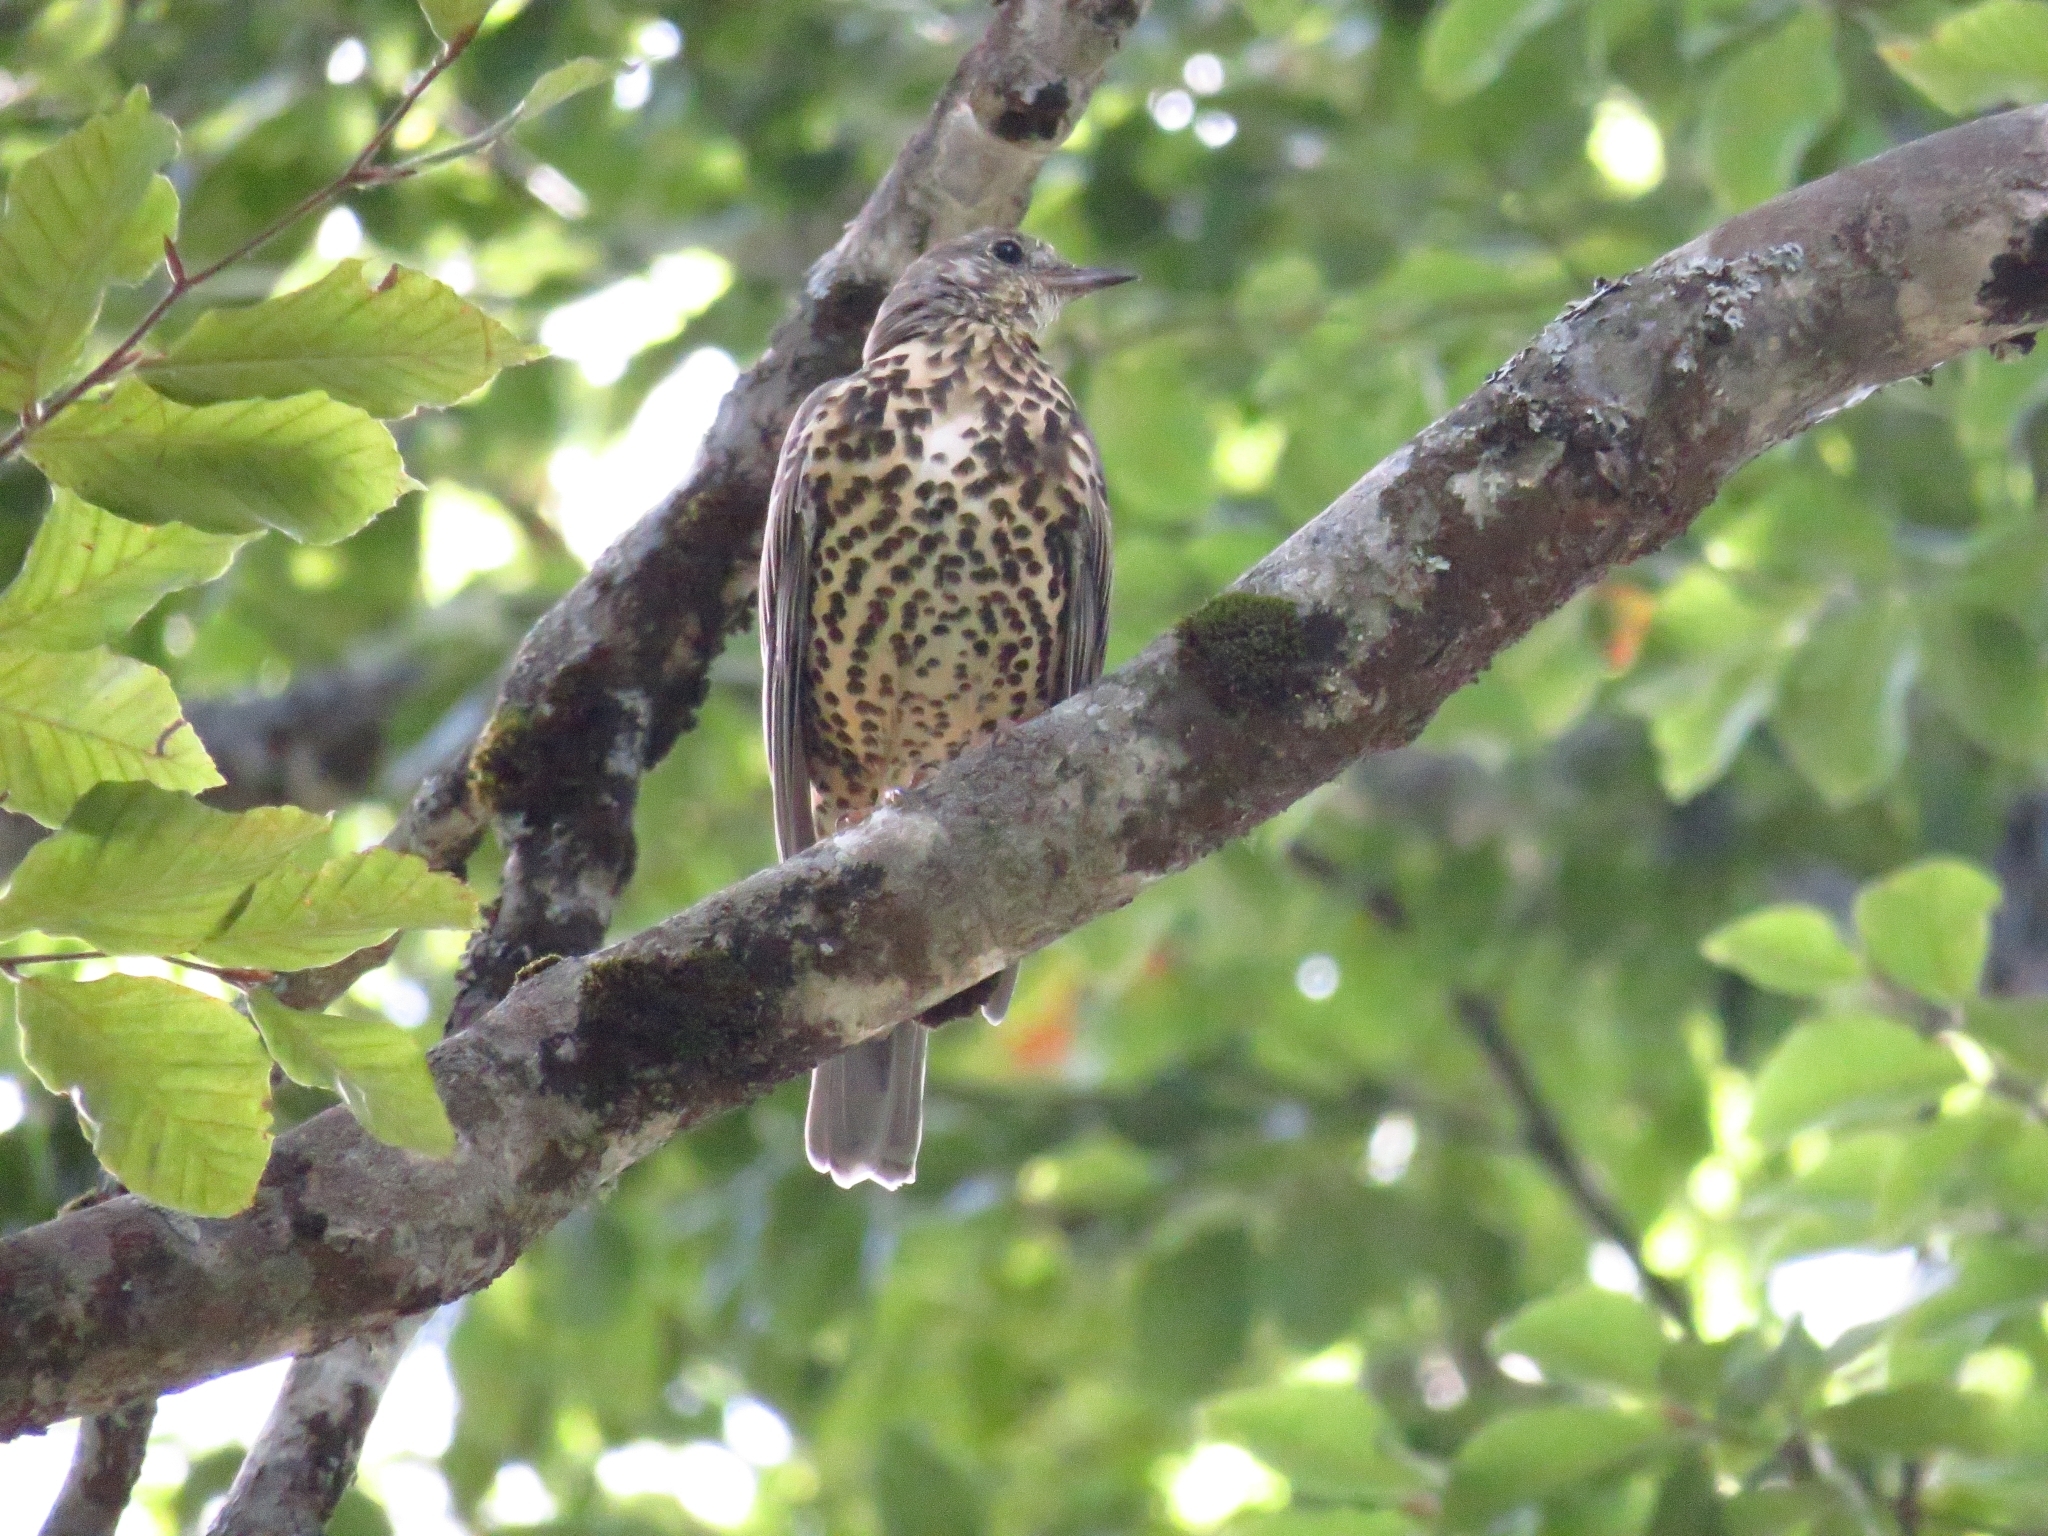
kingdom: Animalia
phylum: Chordata
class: Aves
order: Passeriformes
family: Turdidae
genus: Turdus
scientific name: Turdus viscivorus
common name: Mistle thrush
